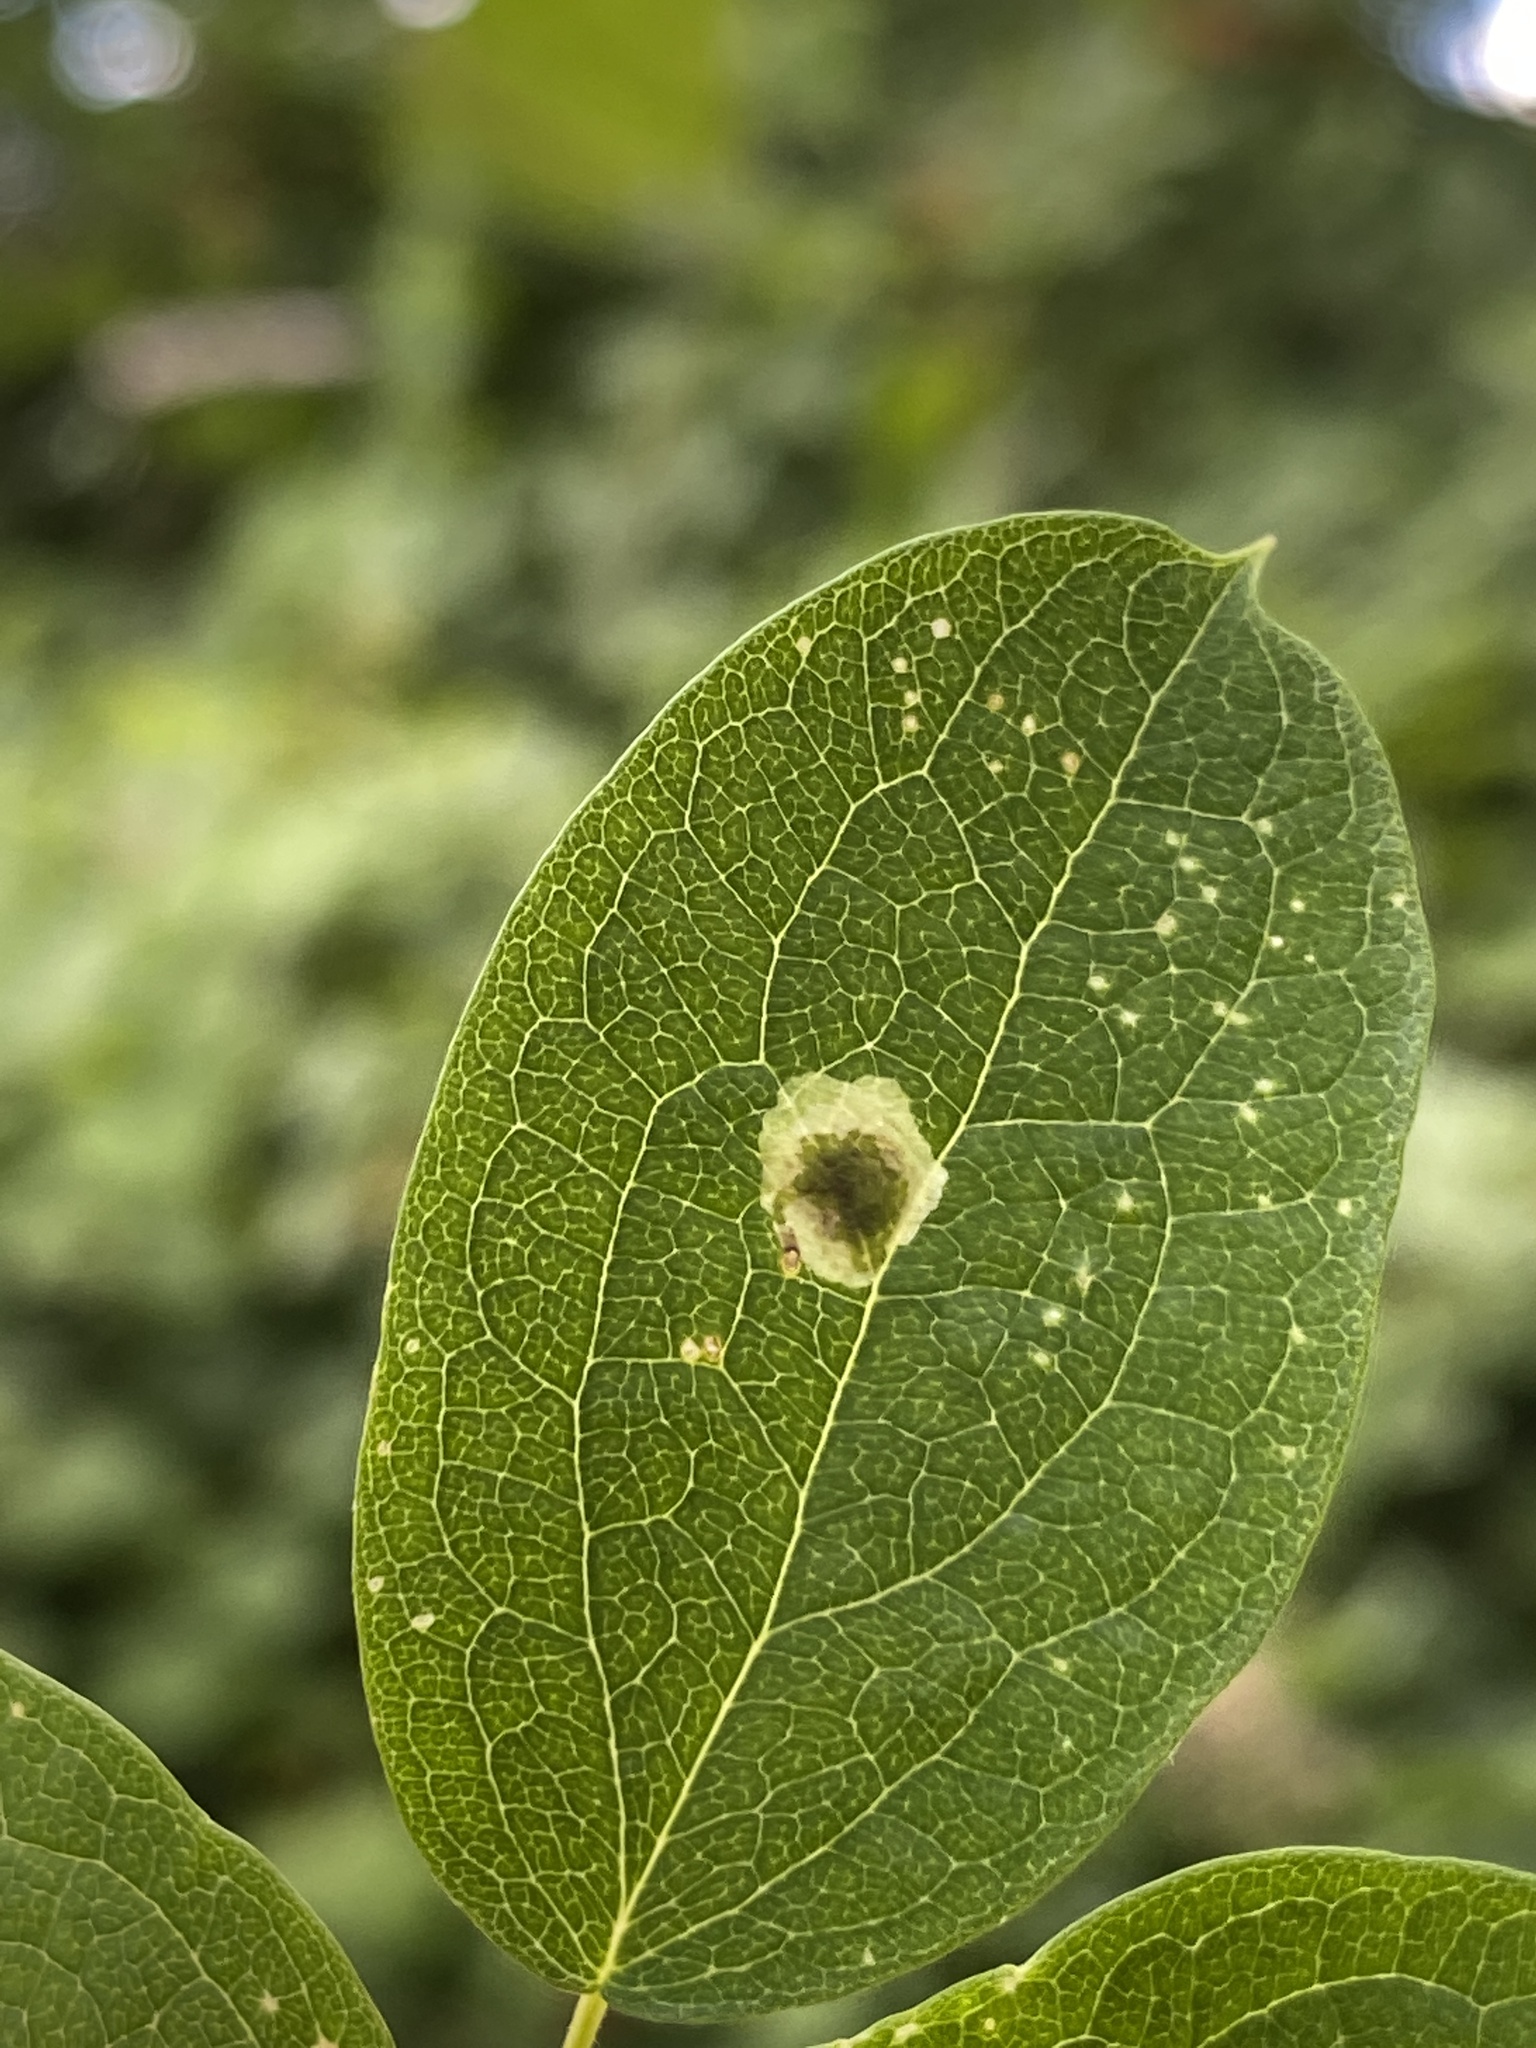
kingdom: Animalia
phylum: Arthropoda
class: Insecta
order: Diptera
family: Agromyzidae
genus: Phytomyza
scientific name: Phytomyza plumiseta
